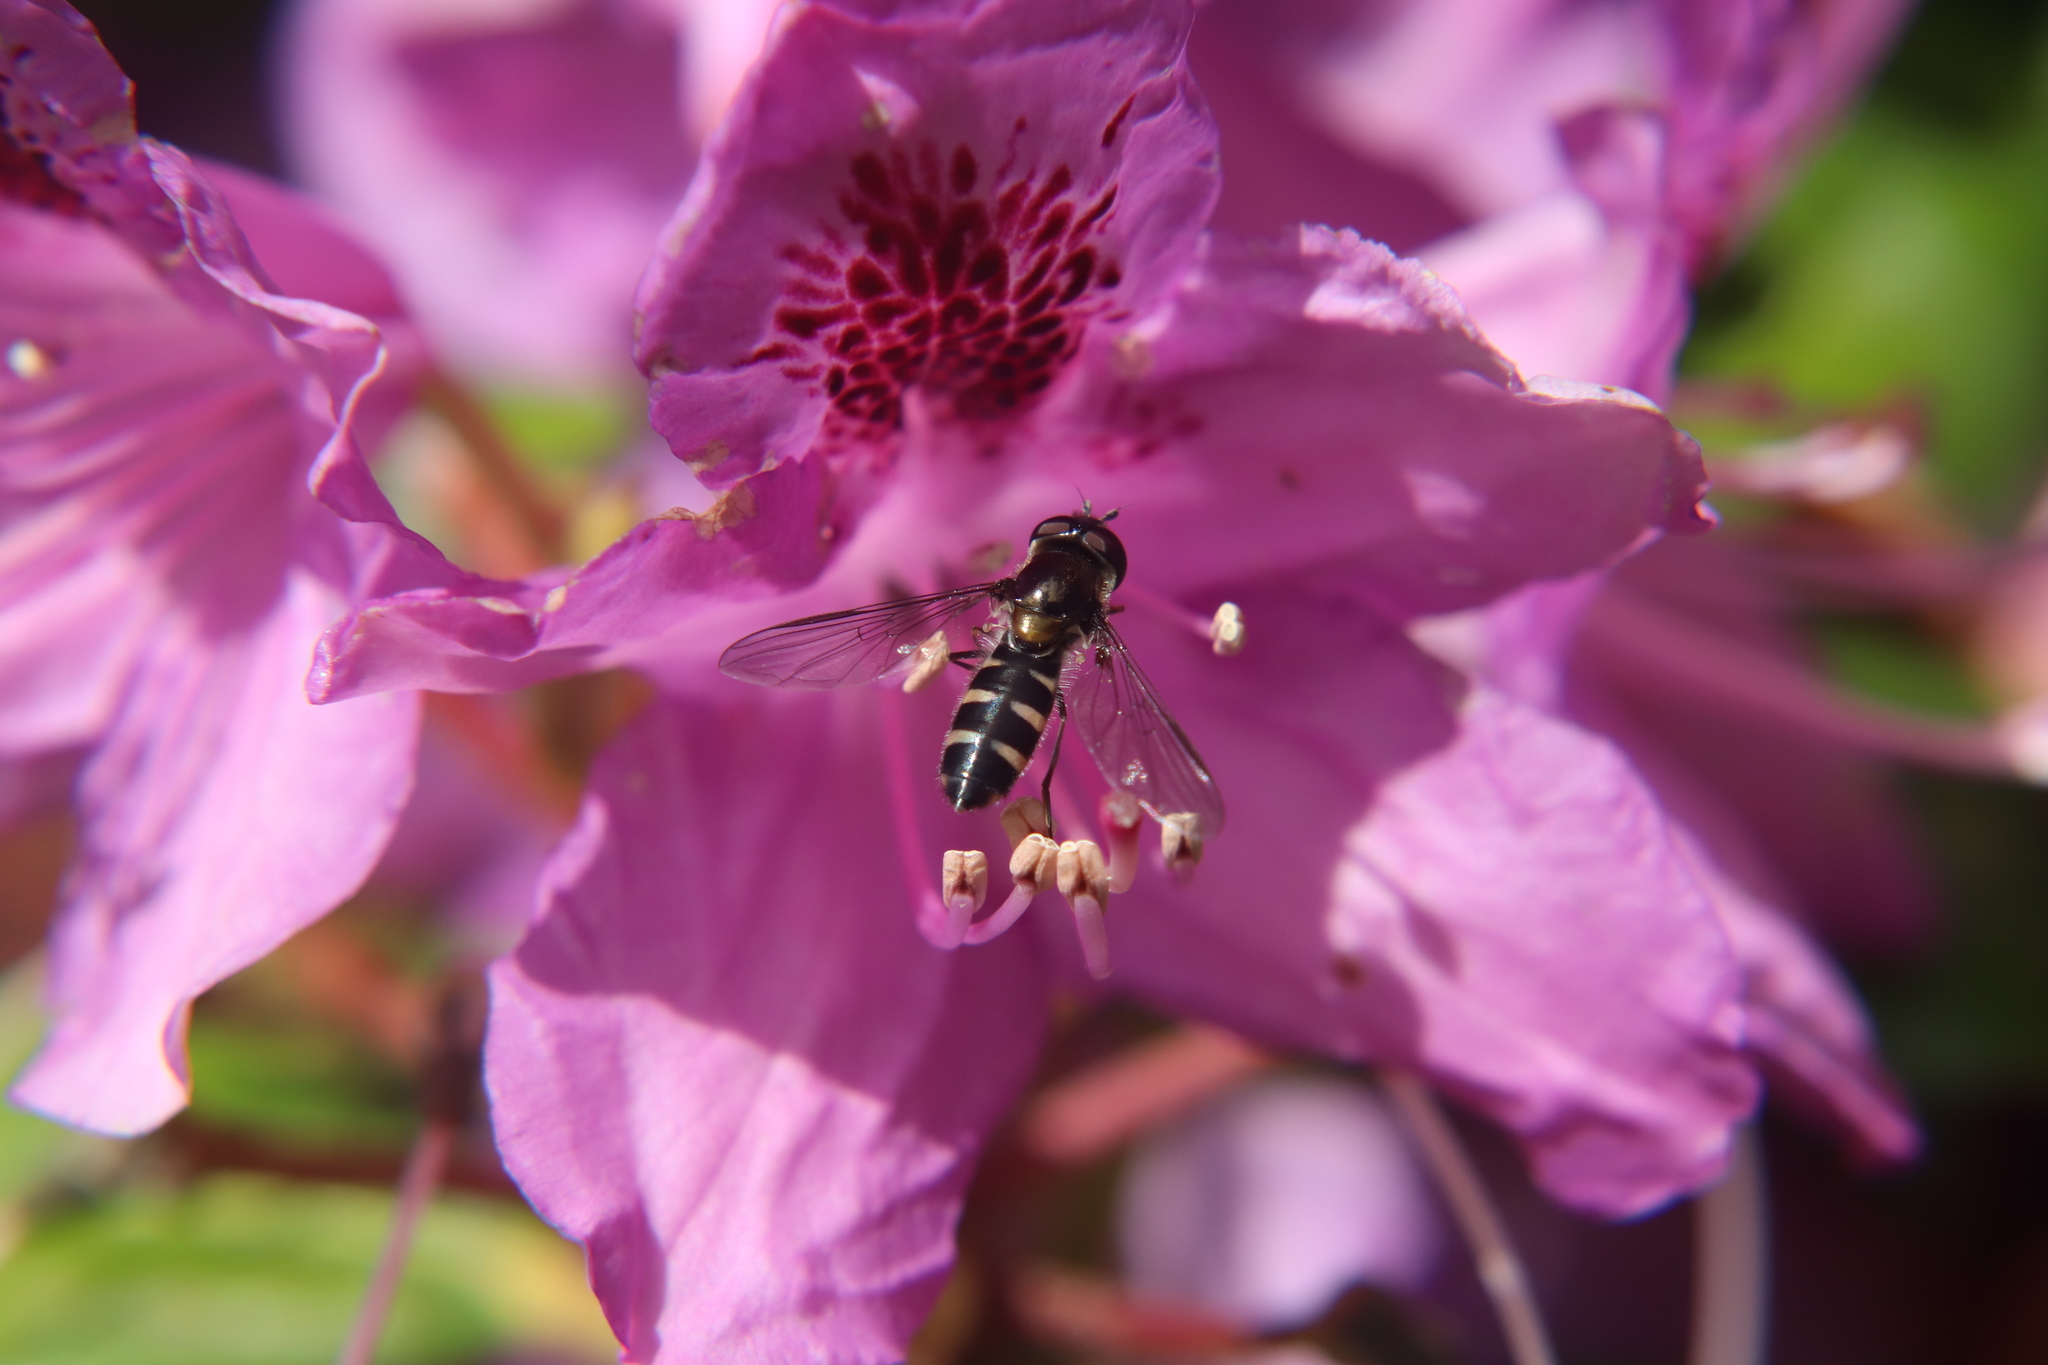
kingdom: Animalia
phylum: Arthropoda
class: Insecta
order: Diptera
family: Syrphidae
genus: Melangyna
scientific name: Melangyna novaezelandiae
